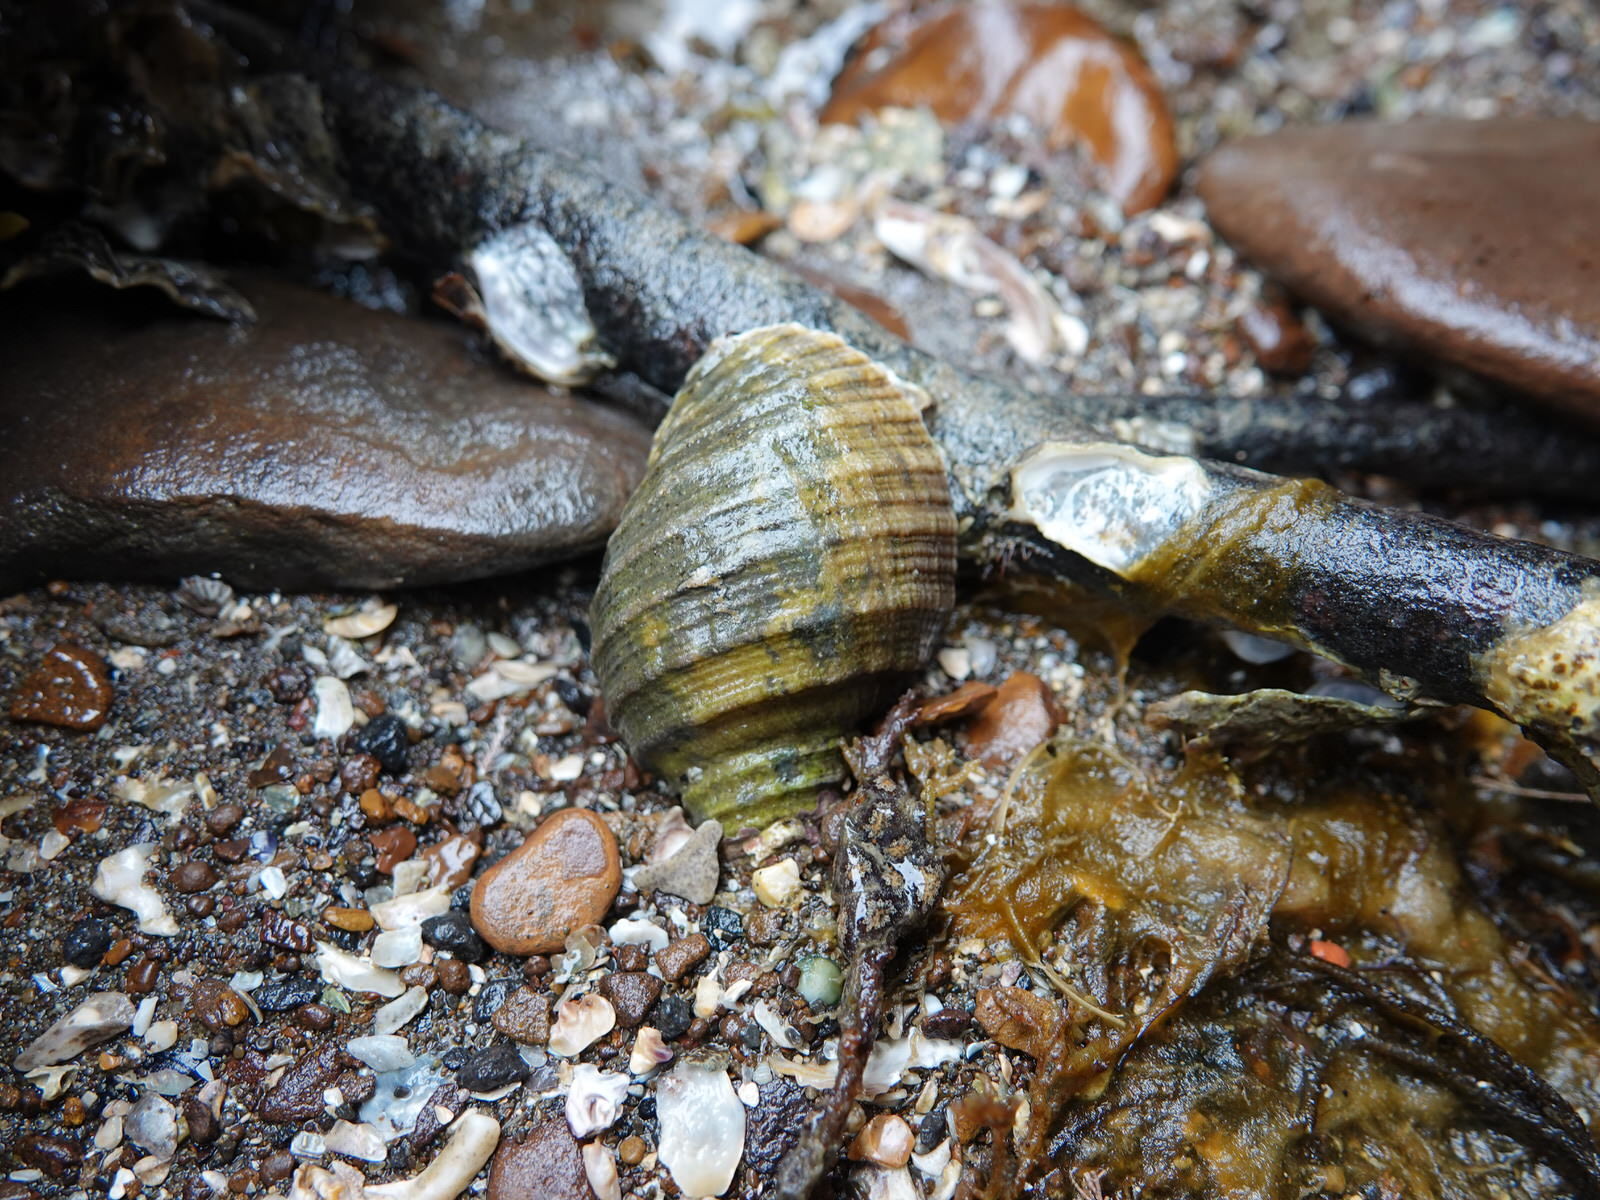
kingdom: Animalia
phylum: Mollusca
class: Gastropoda
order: Neogastropoda
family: Muricidae
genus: Dicathais
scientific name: Dicathais orbita
